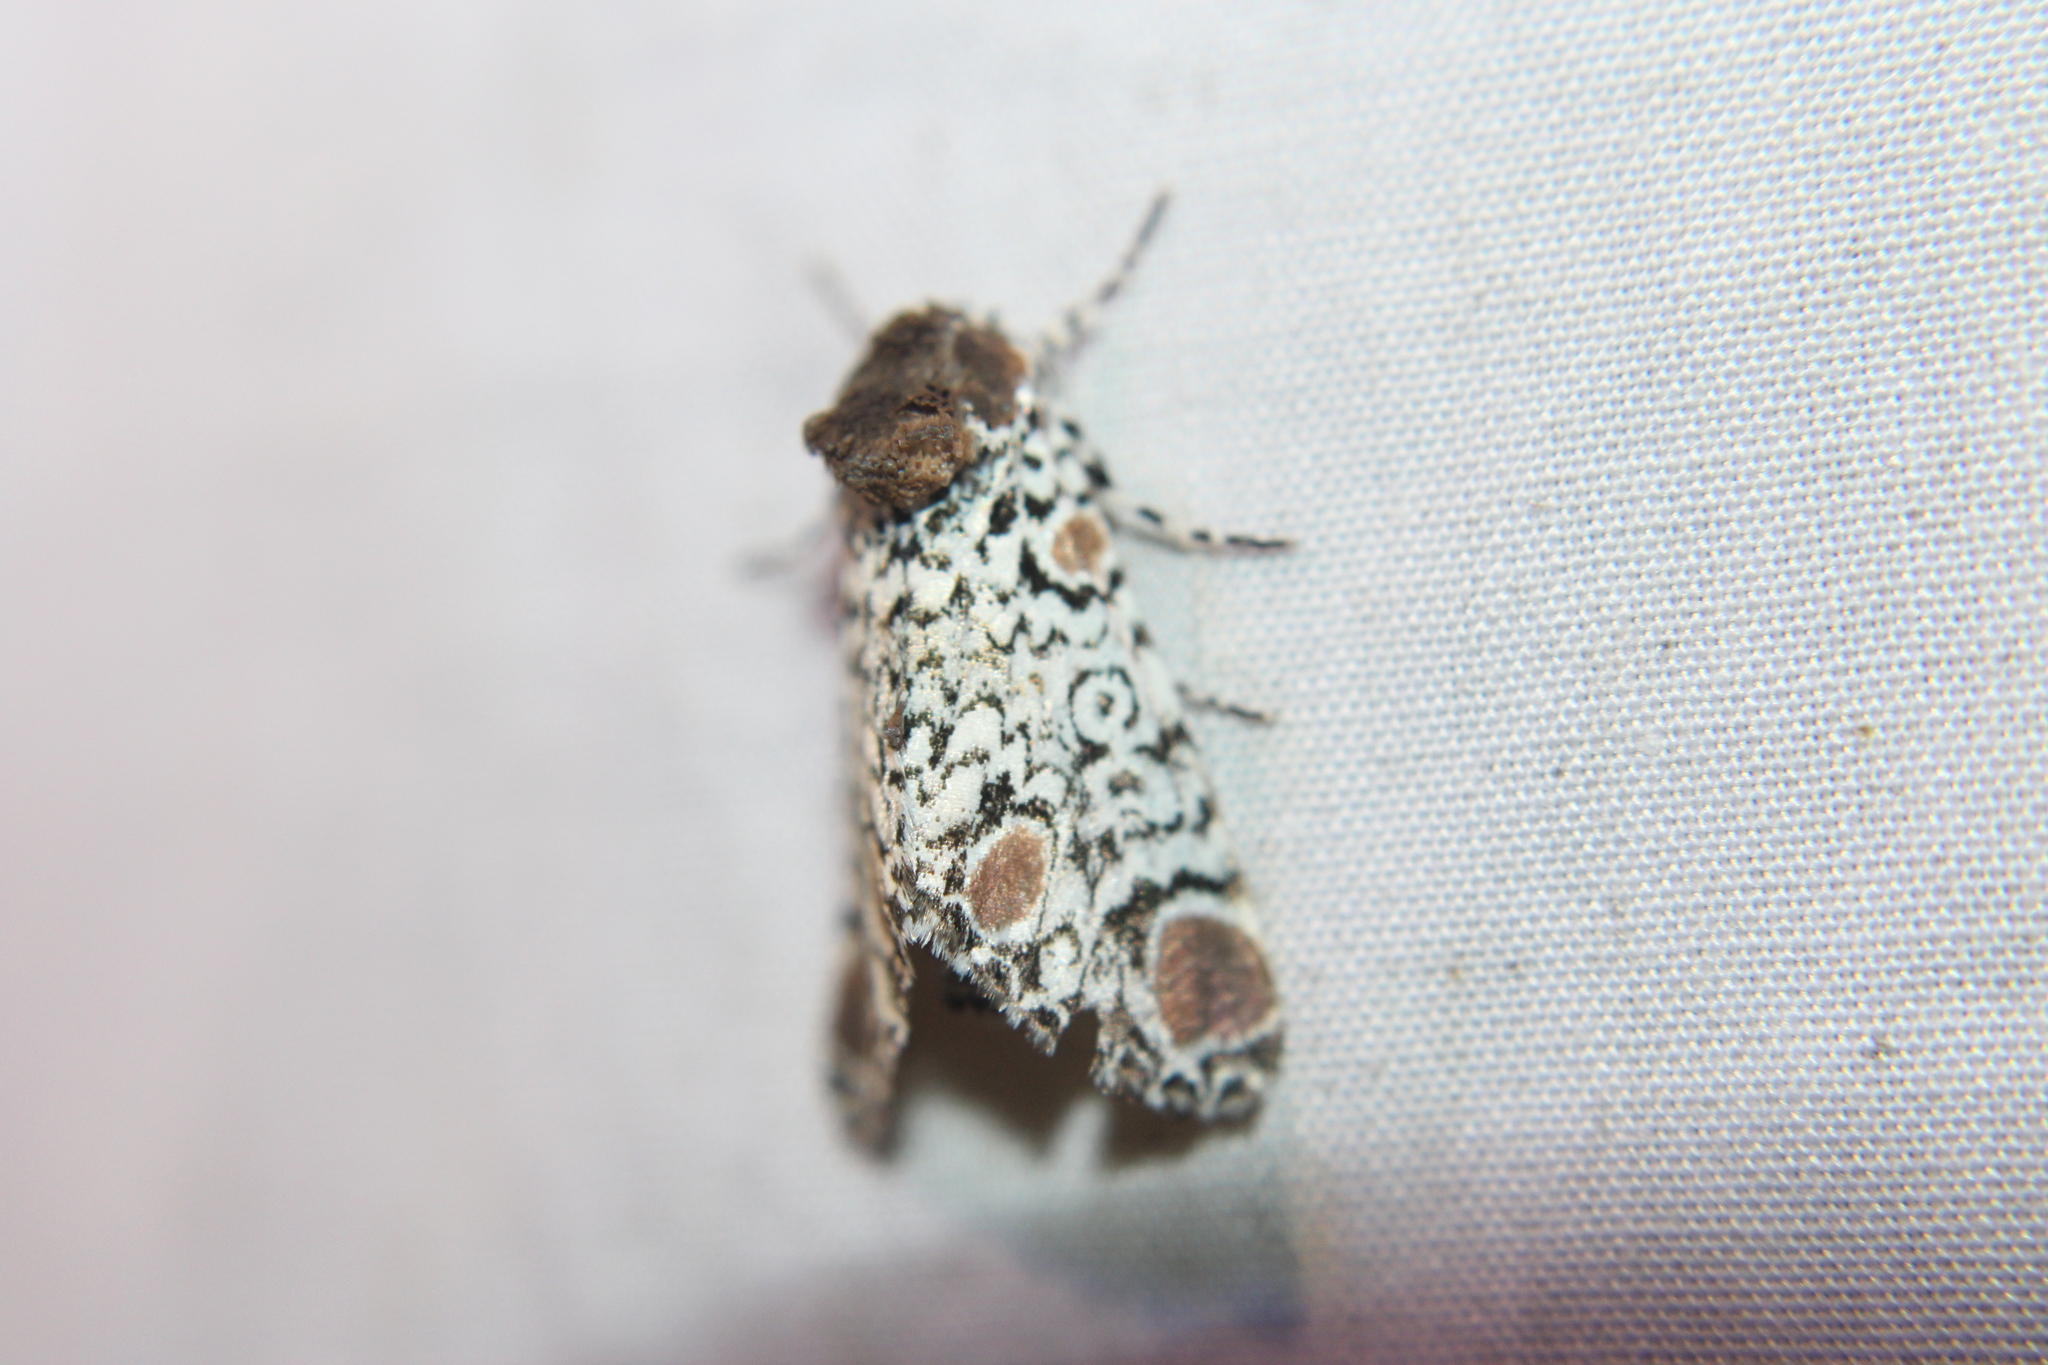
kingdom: Animalia
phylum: Arthropoda
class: Insecta
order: Lepidoptera
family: Noctuidae
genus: Harrisimemna
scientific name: Harrisimemna trisignata
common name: Harris threespot
